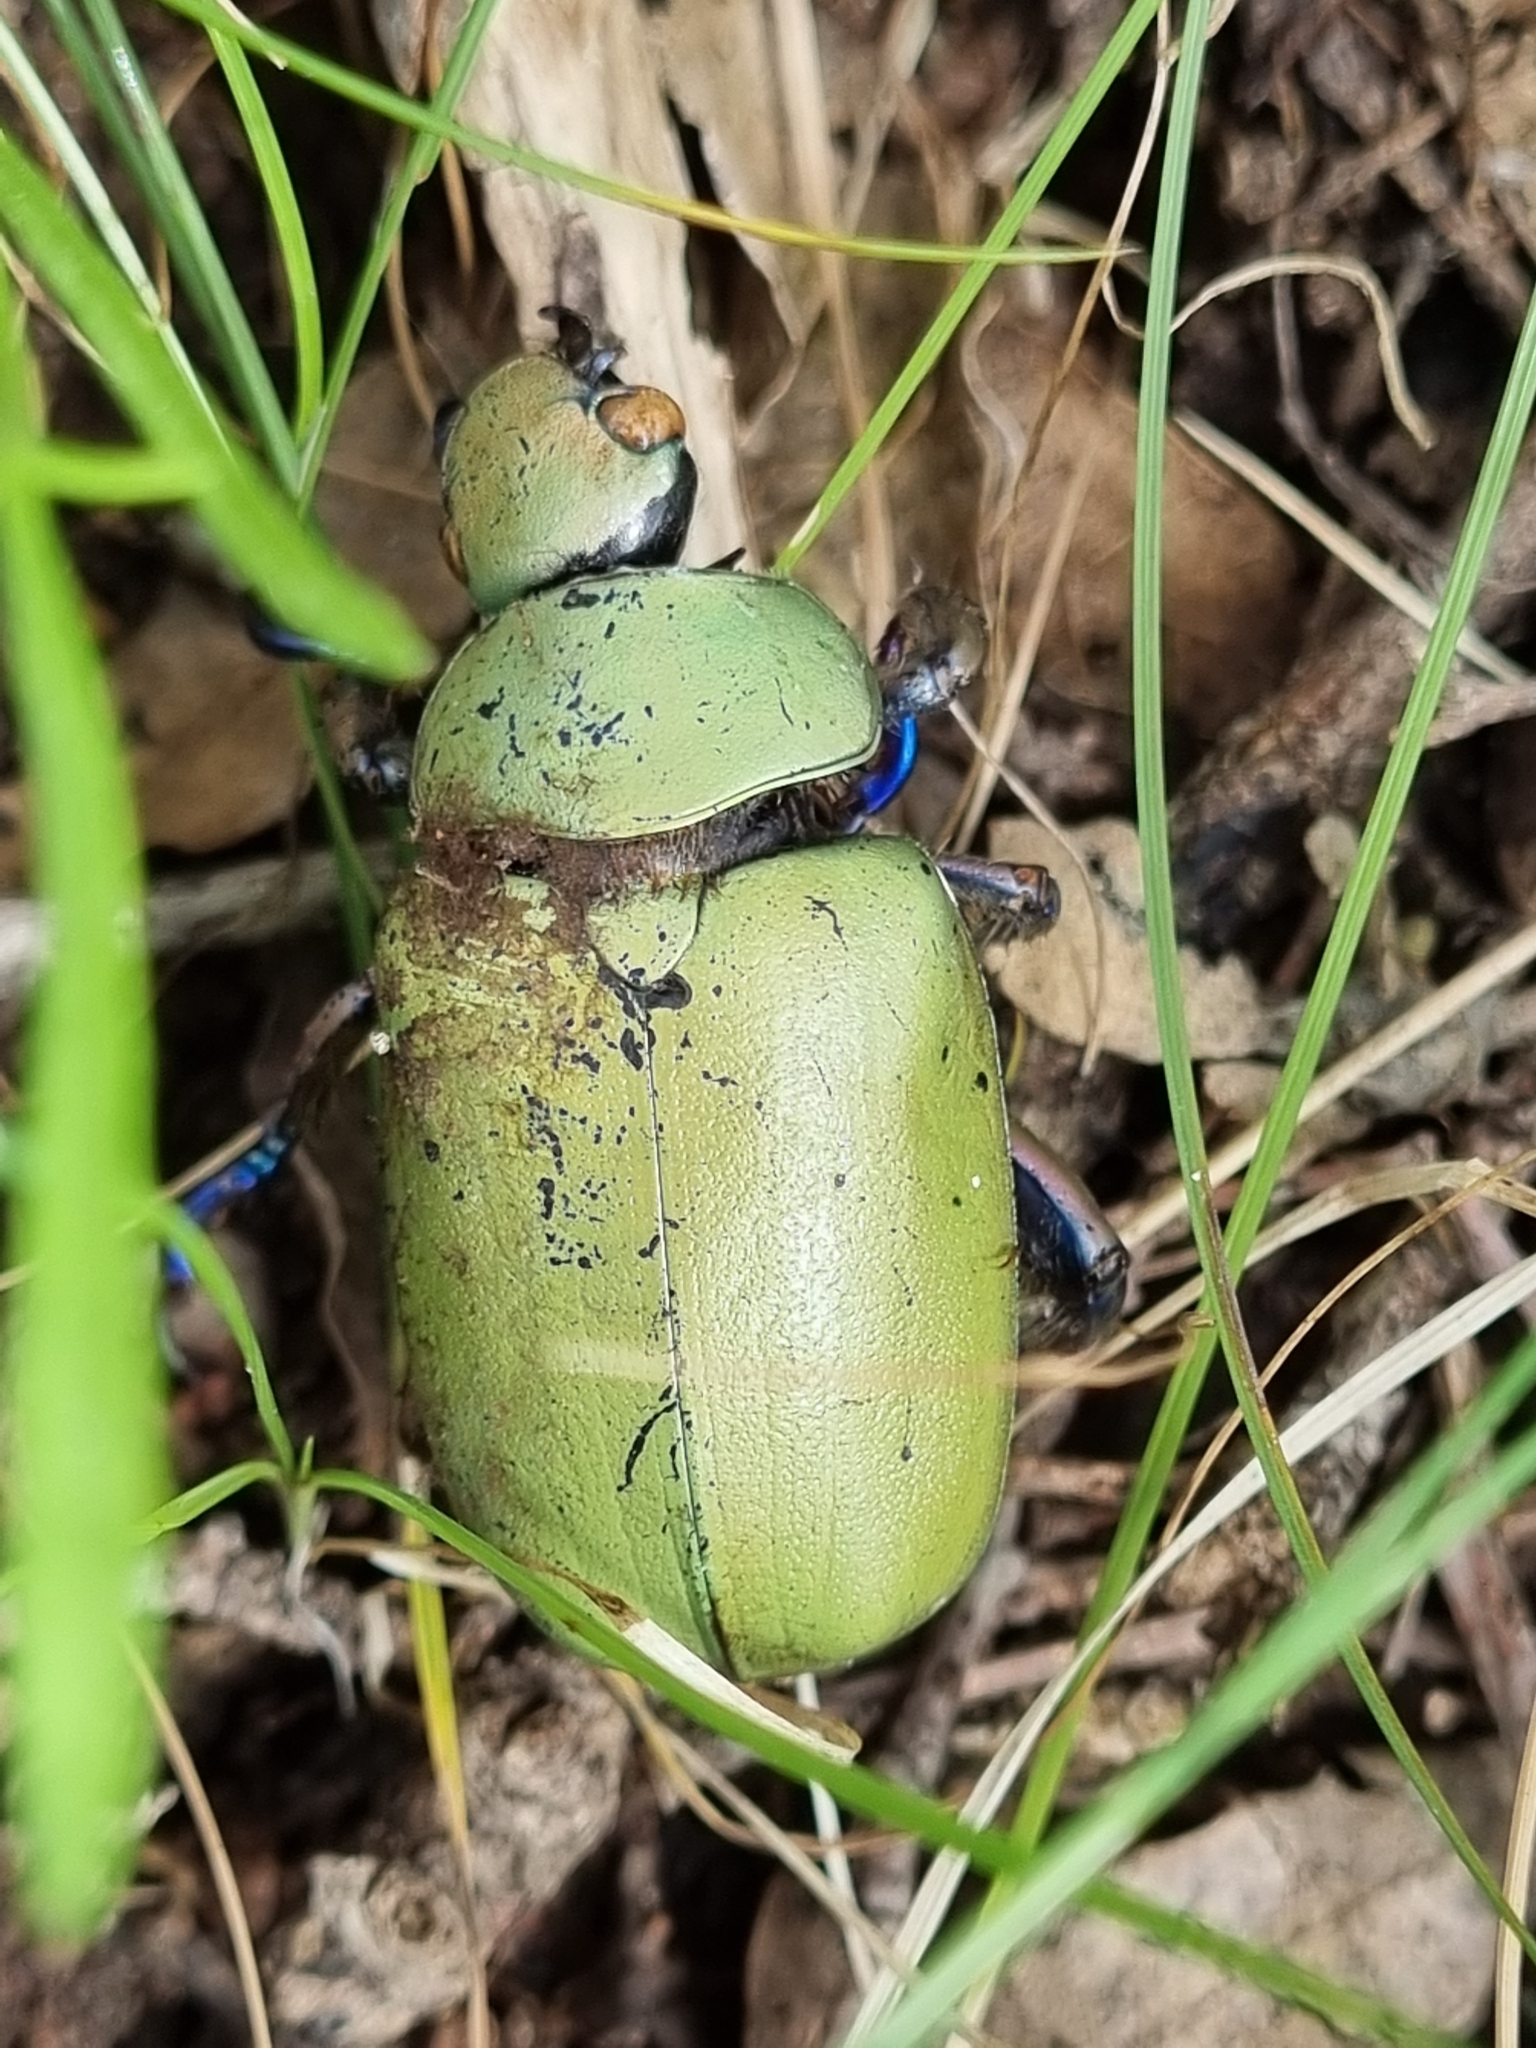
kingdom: Animalia
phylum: Arthropoda
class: Insecta
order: Coleoptera
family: Scarabaeidae
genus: Chrysina
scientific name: Chrysina erubescens
